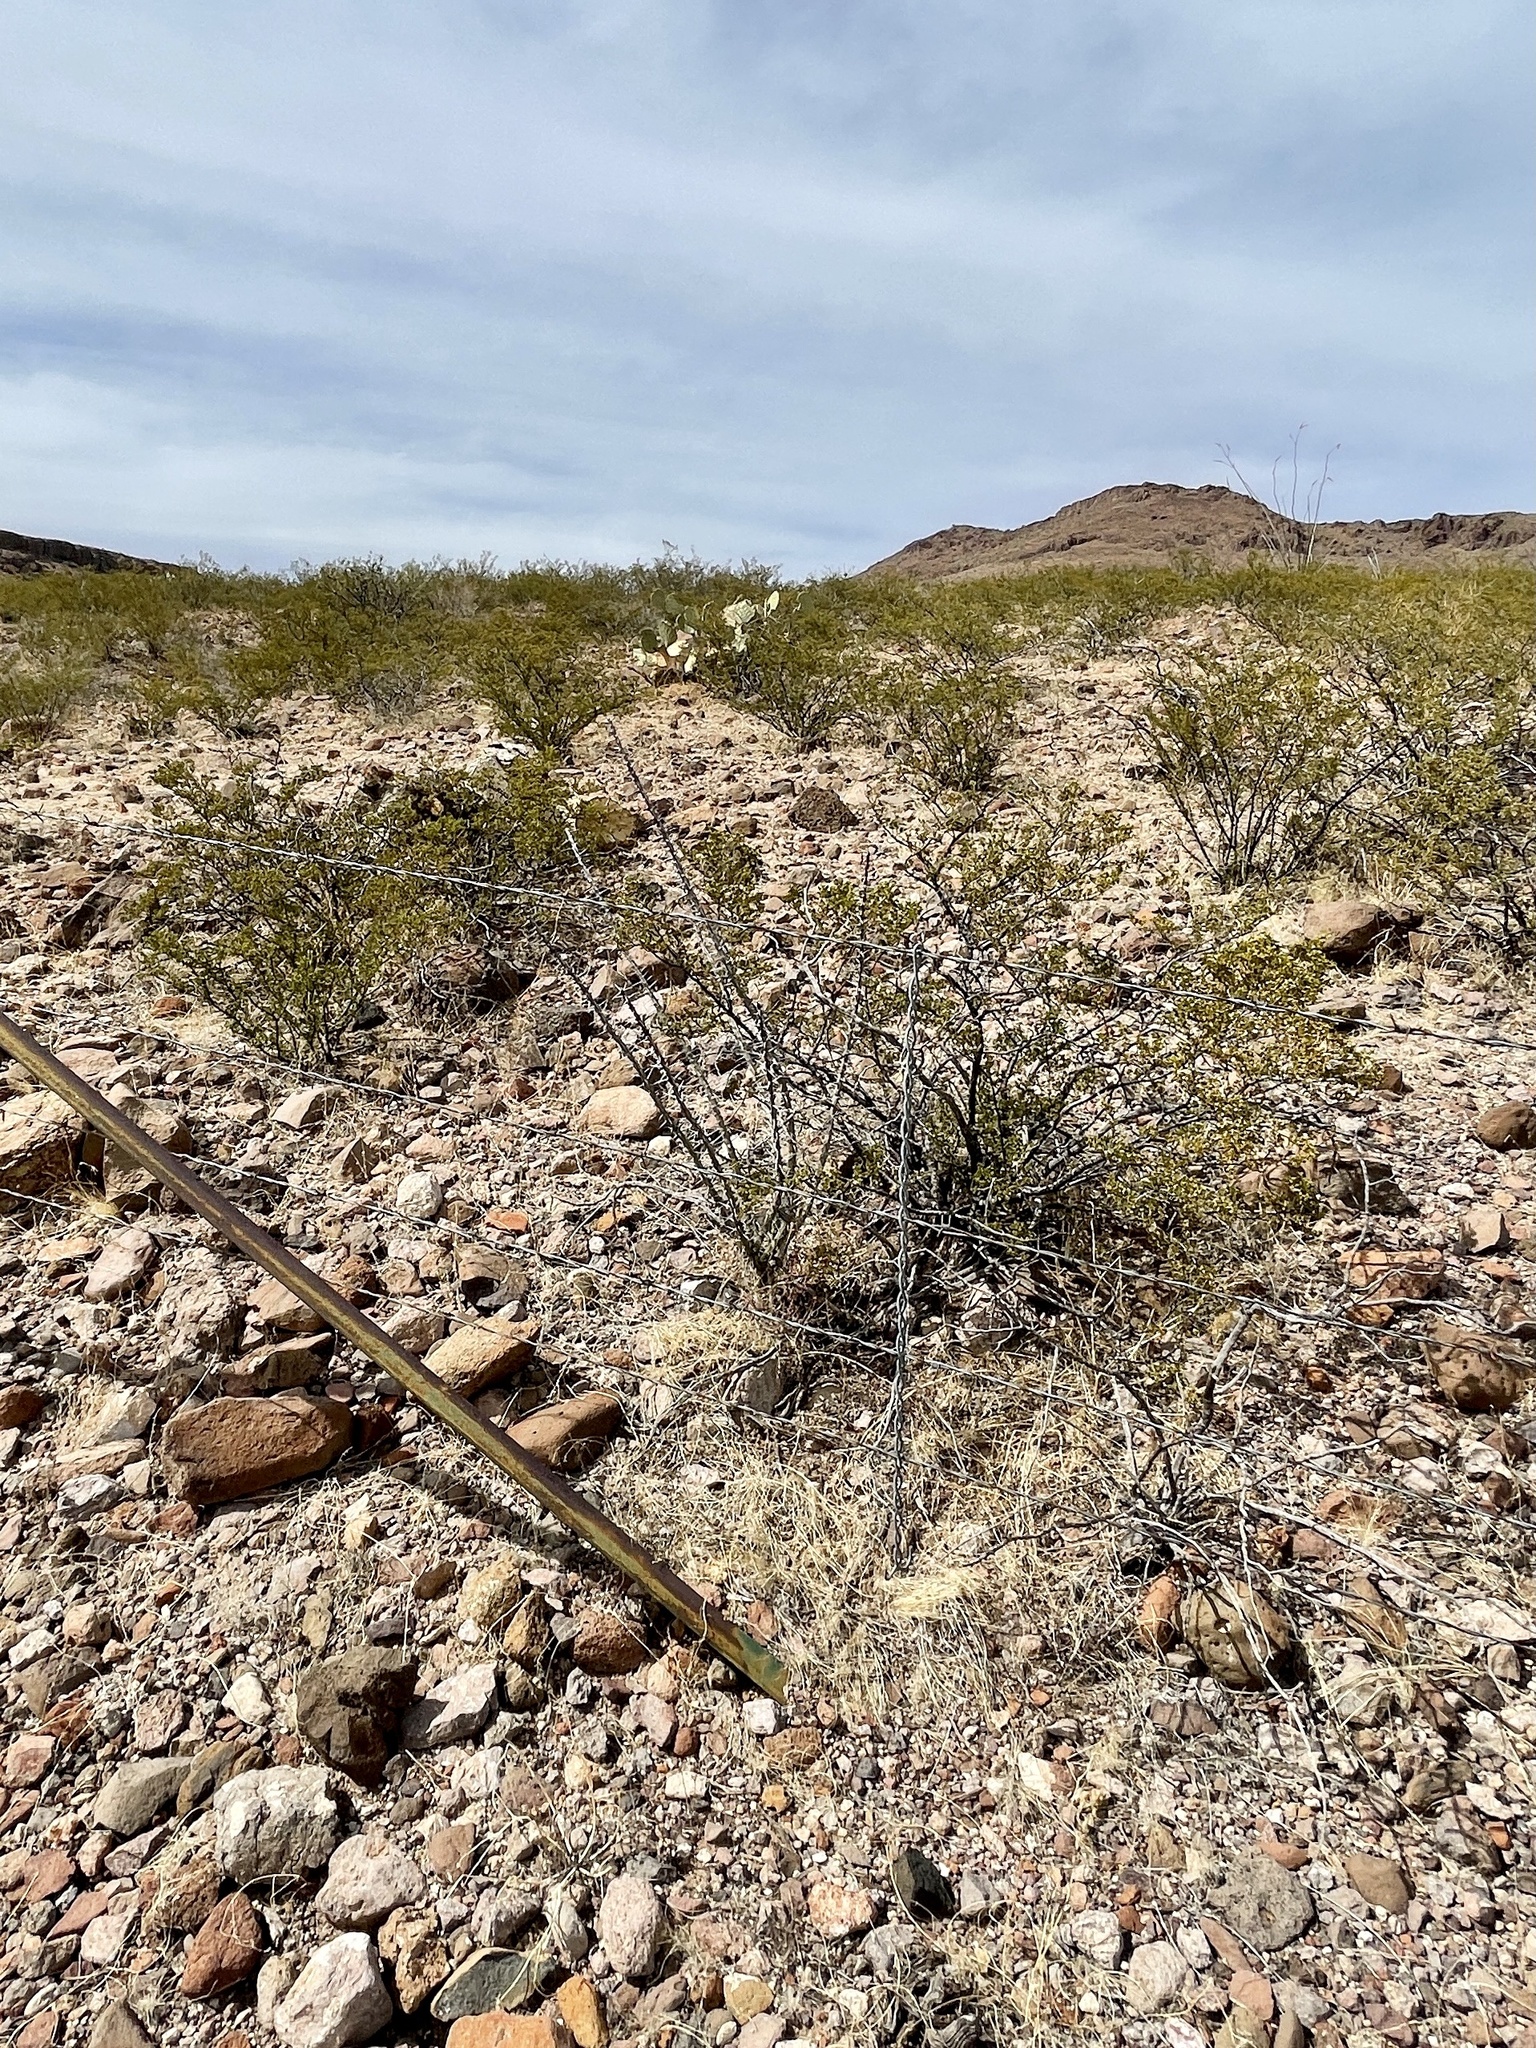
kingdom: Plantae
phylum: Tracheophyta
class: Magnoliopsida
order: Zygophyllales
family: Zygophyllaceae
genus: Larrea
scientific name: Larrea tridentata
